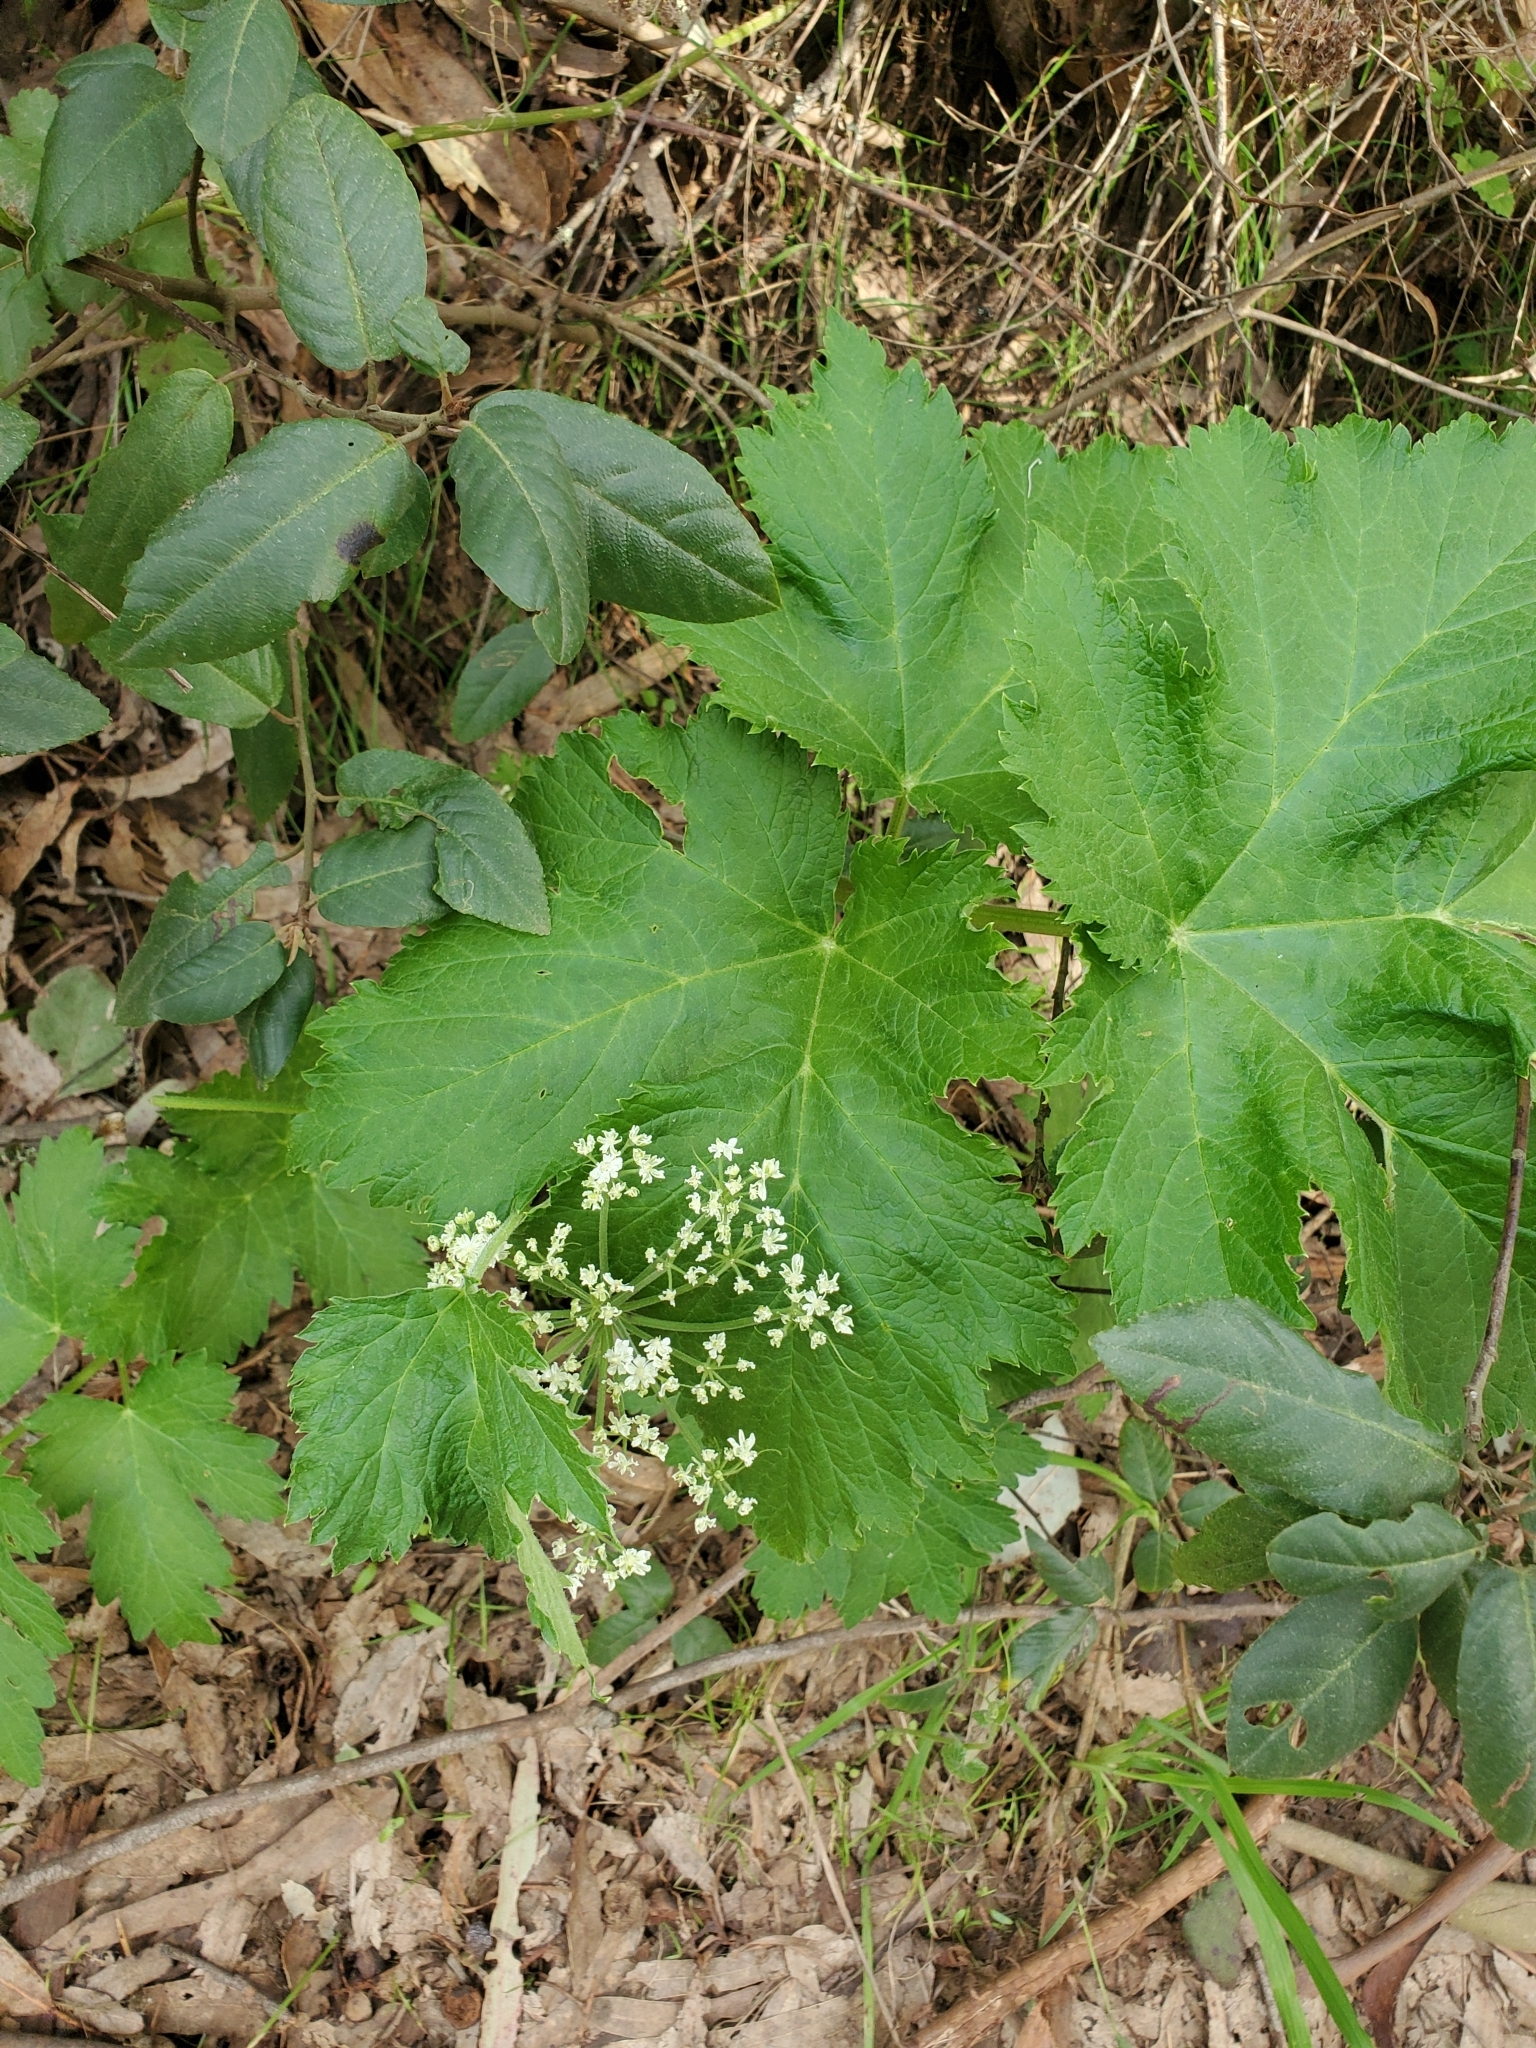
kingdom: Plantae
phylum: Tracheophyta
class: Magnoliopsida
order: Apiales
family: Apiaceae
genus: Heracleum
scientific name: Heracleum maximum
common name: American cow parsnip
